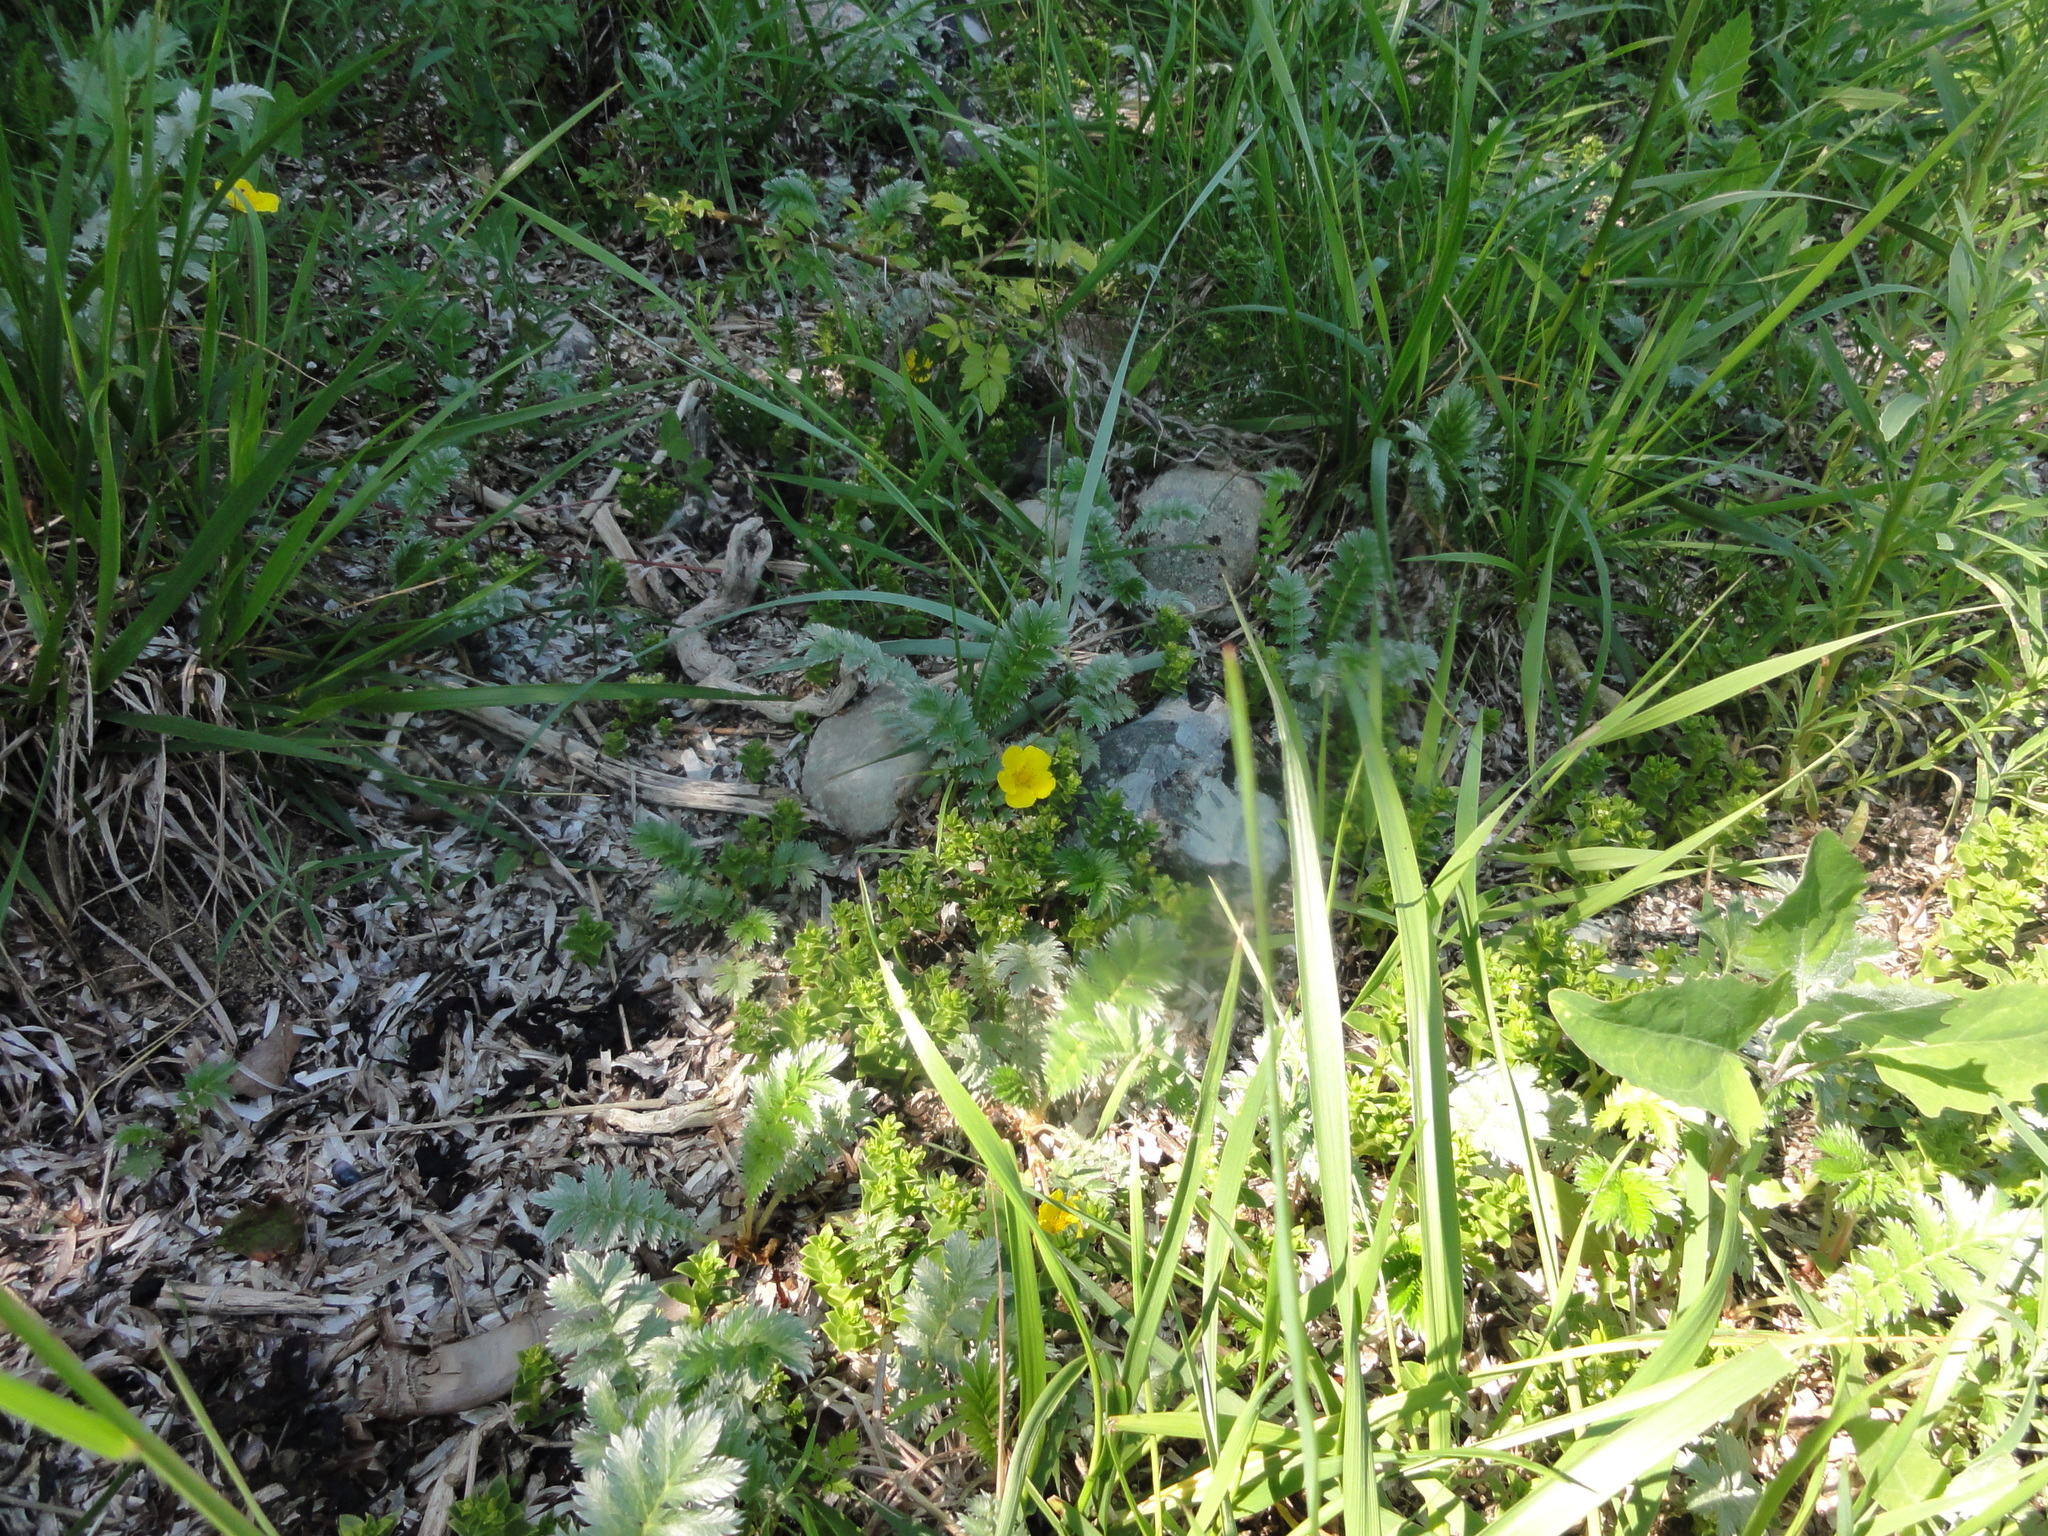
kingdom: Plantae
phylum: Tracheophyta
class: Magnoliopsida
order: Rosales
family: Rosaceae
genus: Argentina
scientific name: Argentina anserina
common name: Common silverweed
